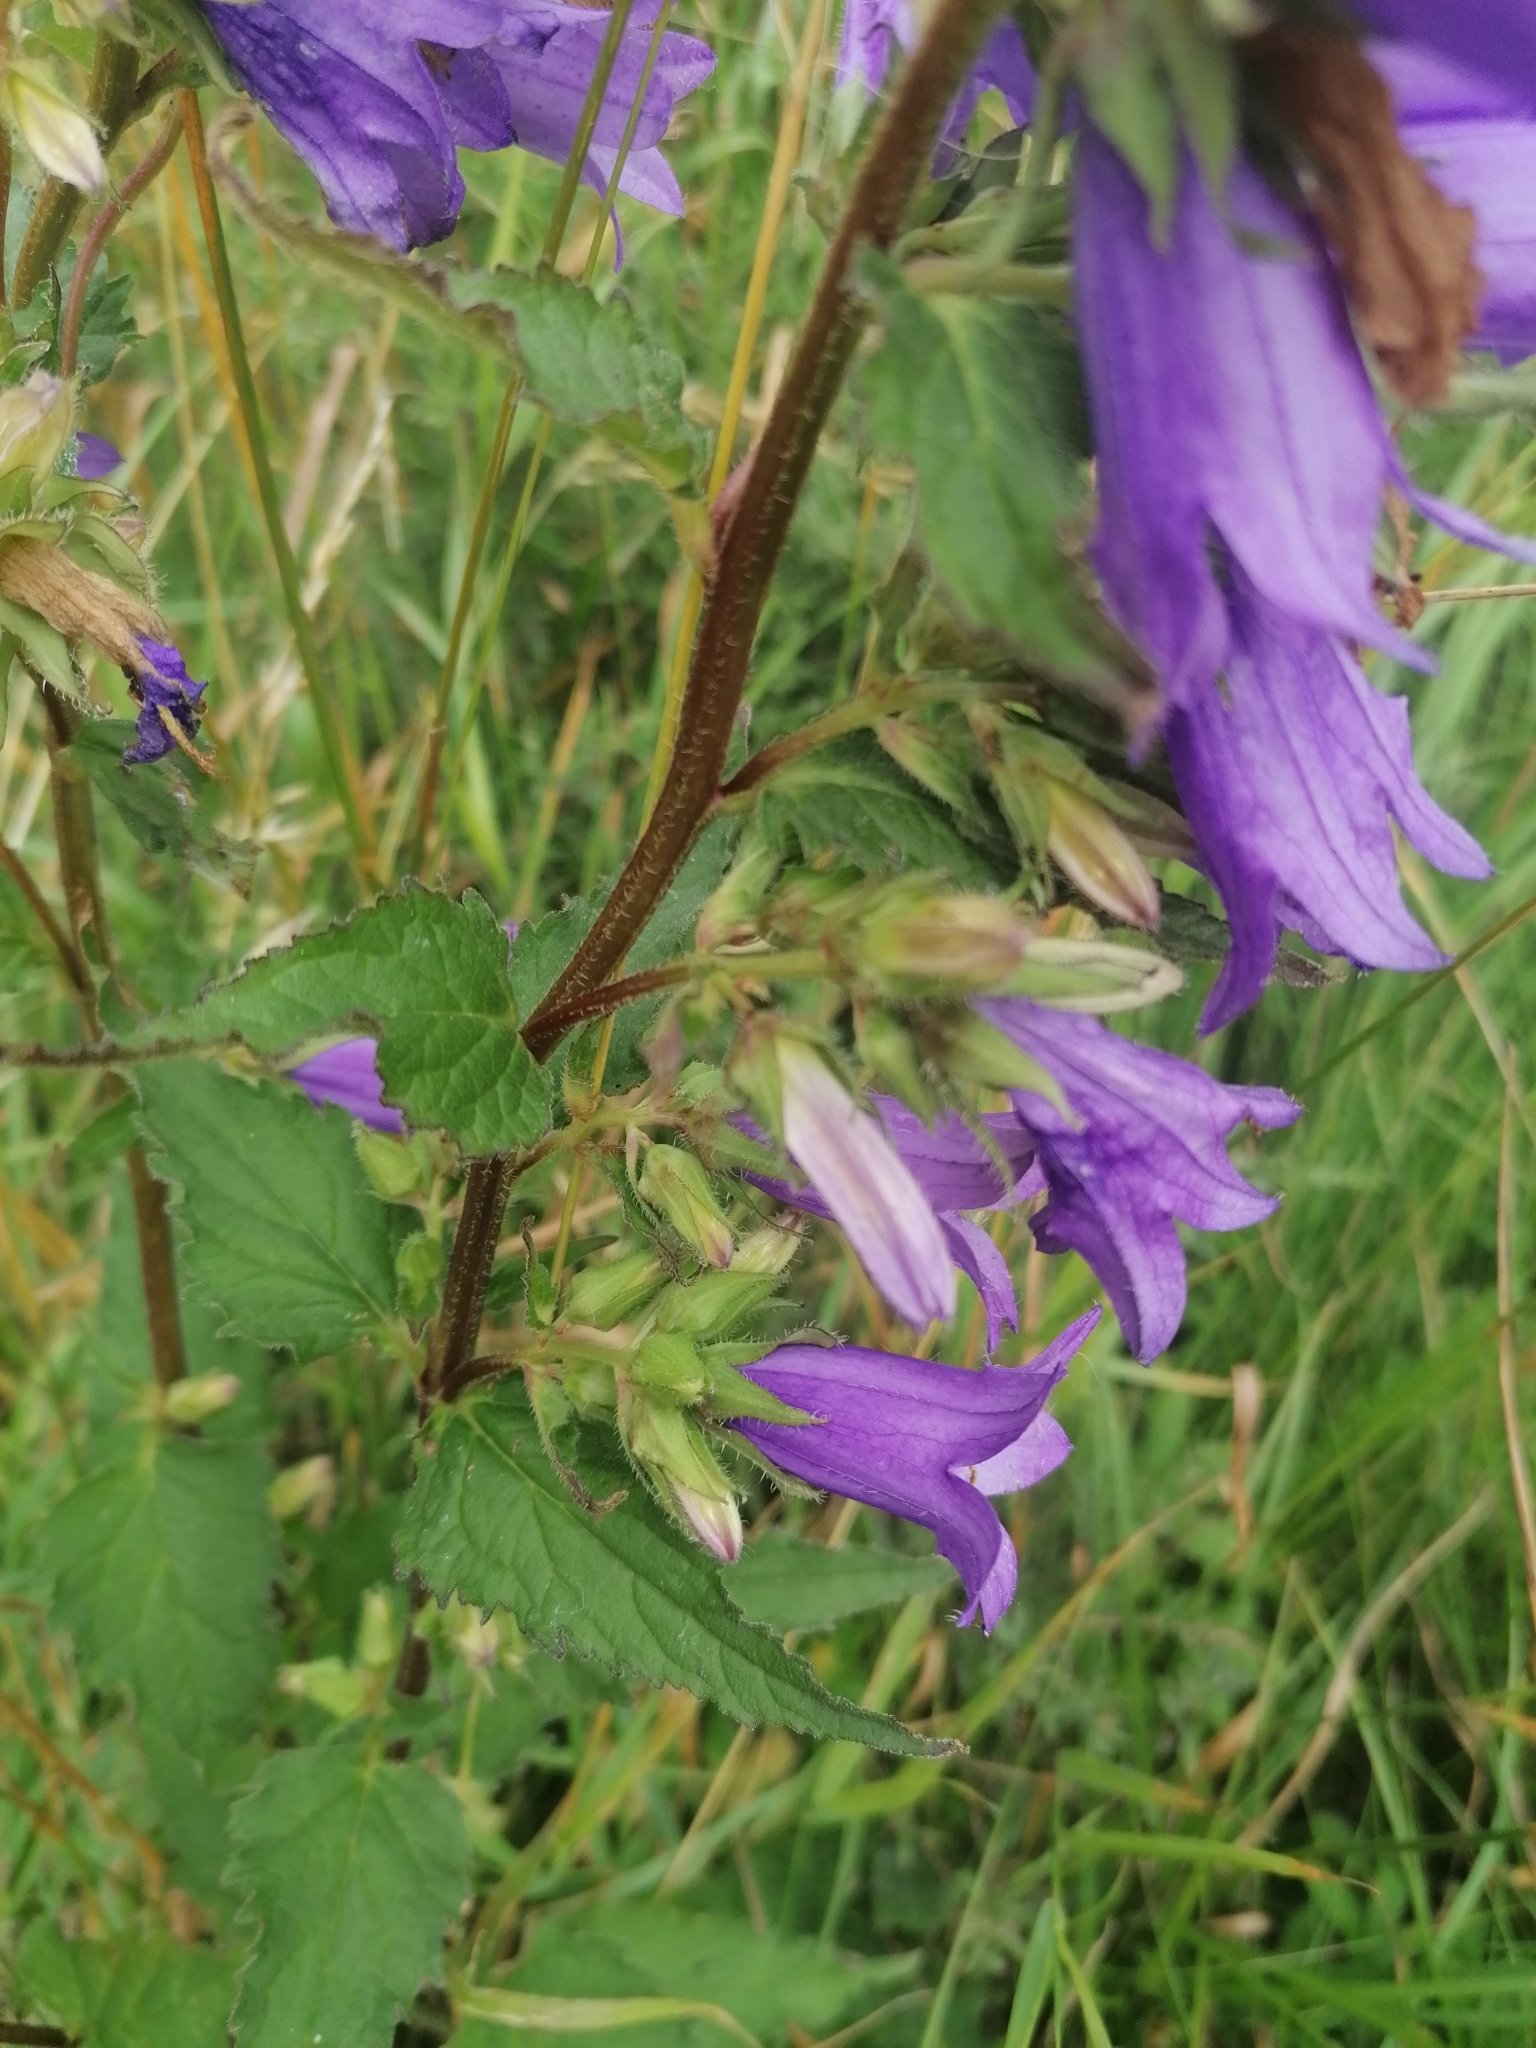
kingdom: Plantae
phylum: Tracheophyta
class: Magnoliopsida
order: Asterales
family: Campanulaceae
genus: Campanula
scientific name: Campanula trachelium
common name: Nettle-leaved bellflower
